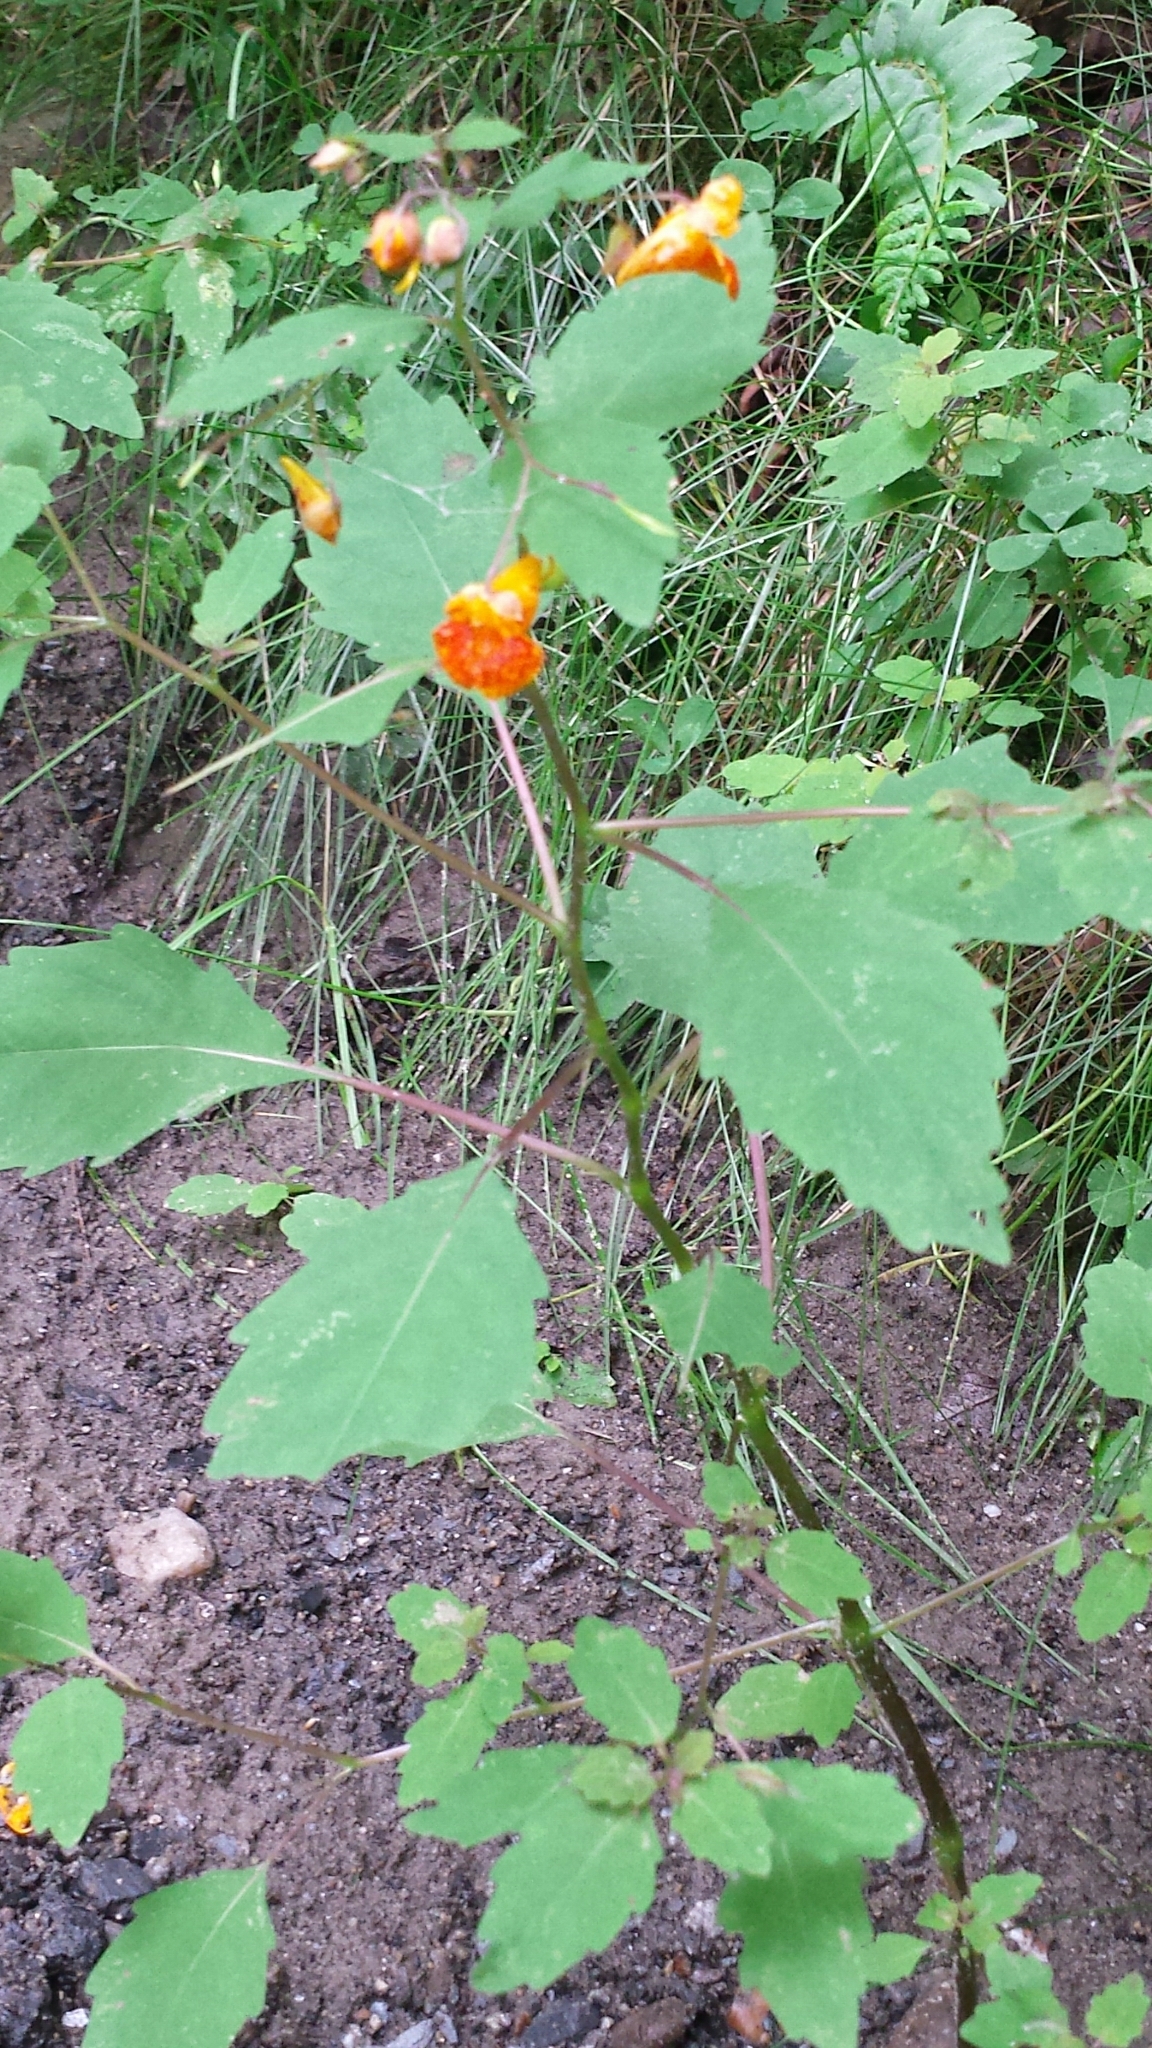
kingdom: Plantae
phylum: Tracheophyta
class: Magnoliopsida
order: Ericales
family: Balsaminaceae
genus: Impatiens
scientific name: Impatiens capensis
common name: Orange balsam
